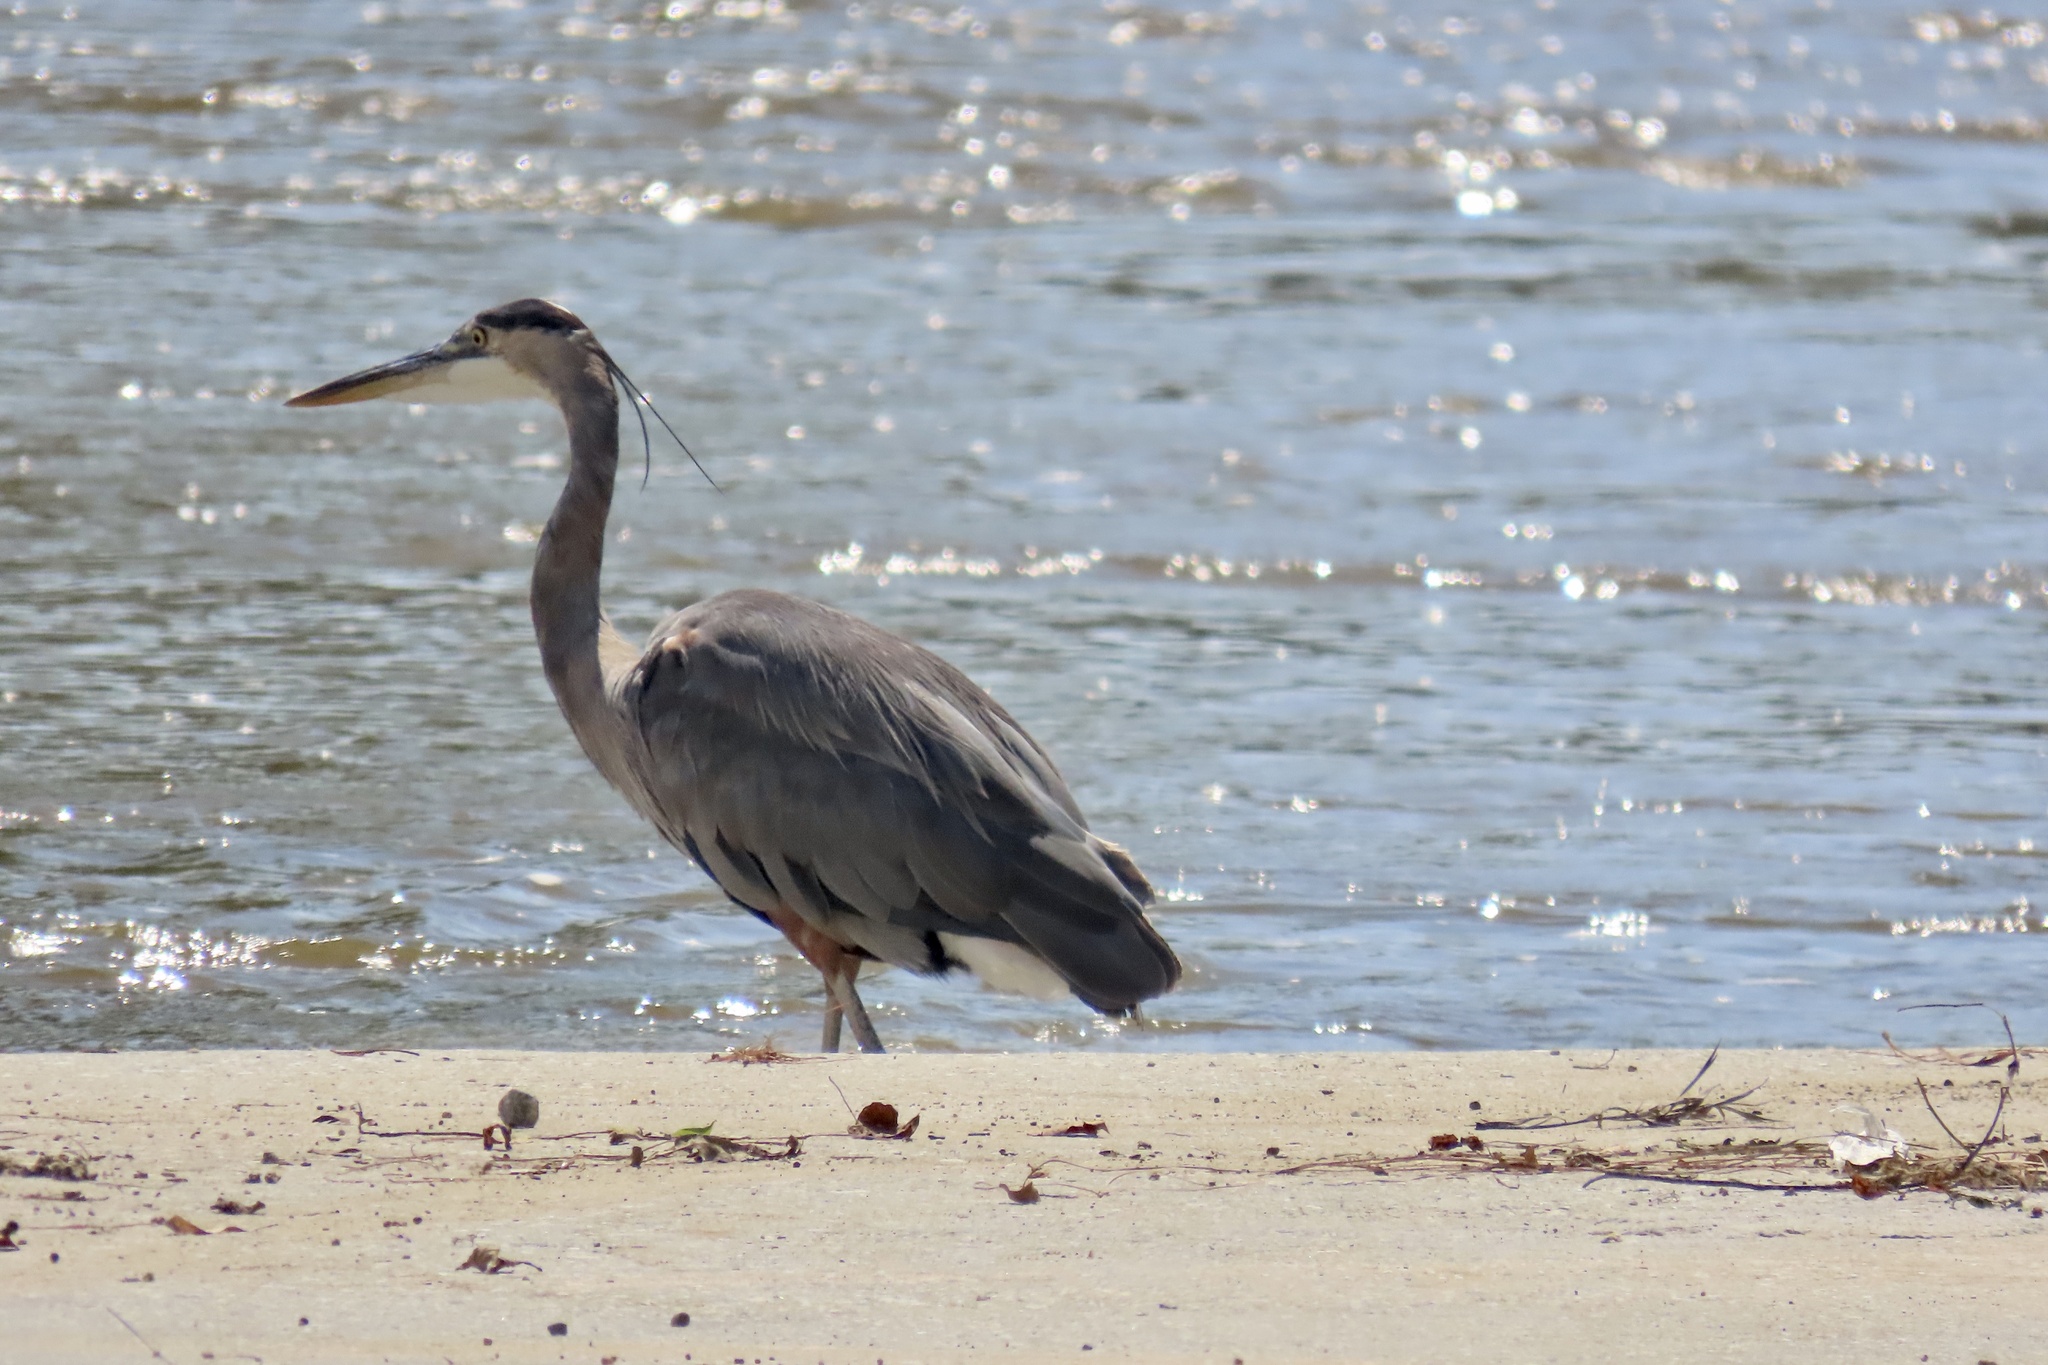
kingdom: Animalia
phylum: Chordata
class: Aves
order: Pelecaniformes
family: Ardeidae
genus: Ardea
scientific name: Ardea herodias
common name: Great blue heron
